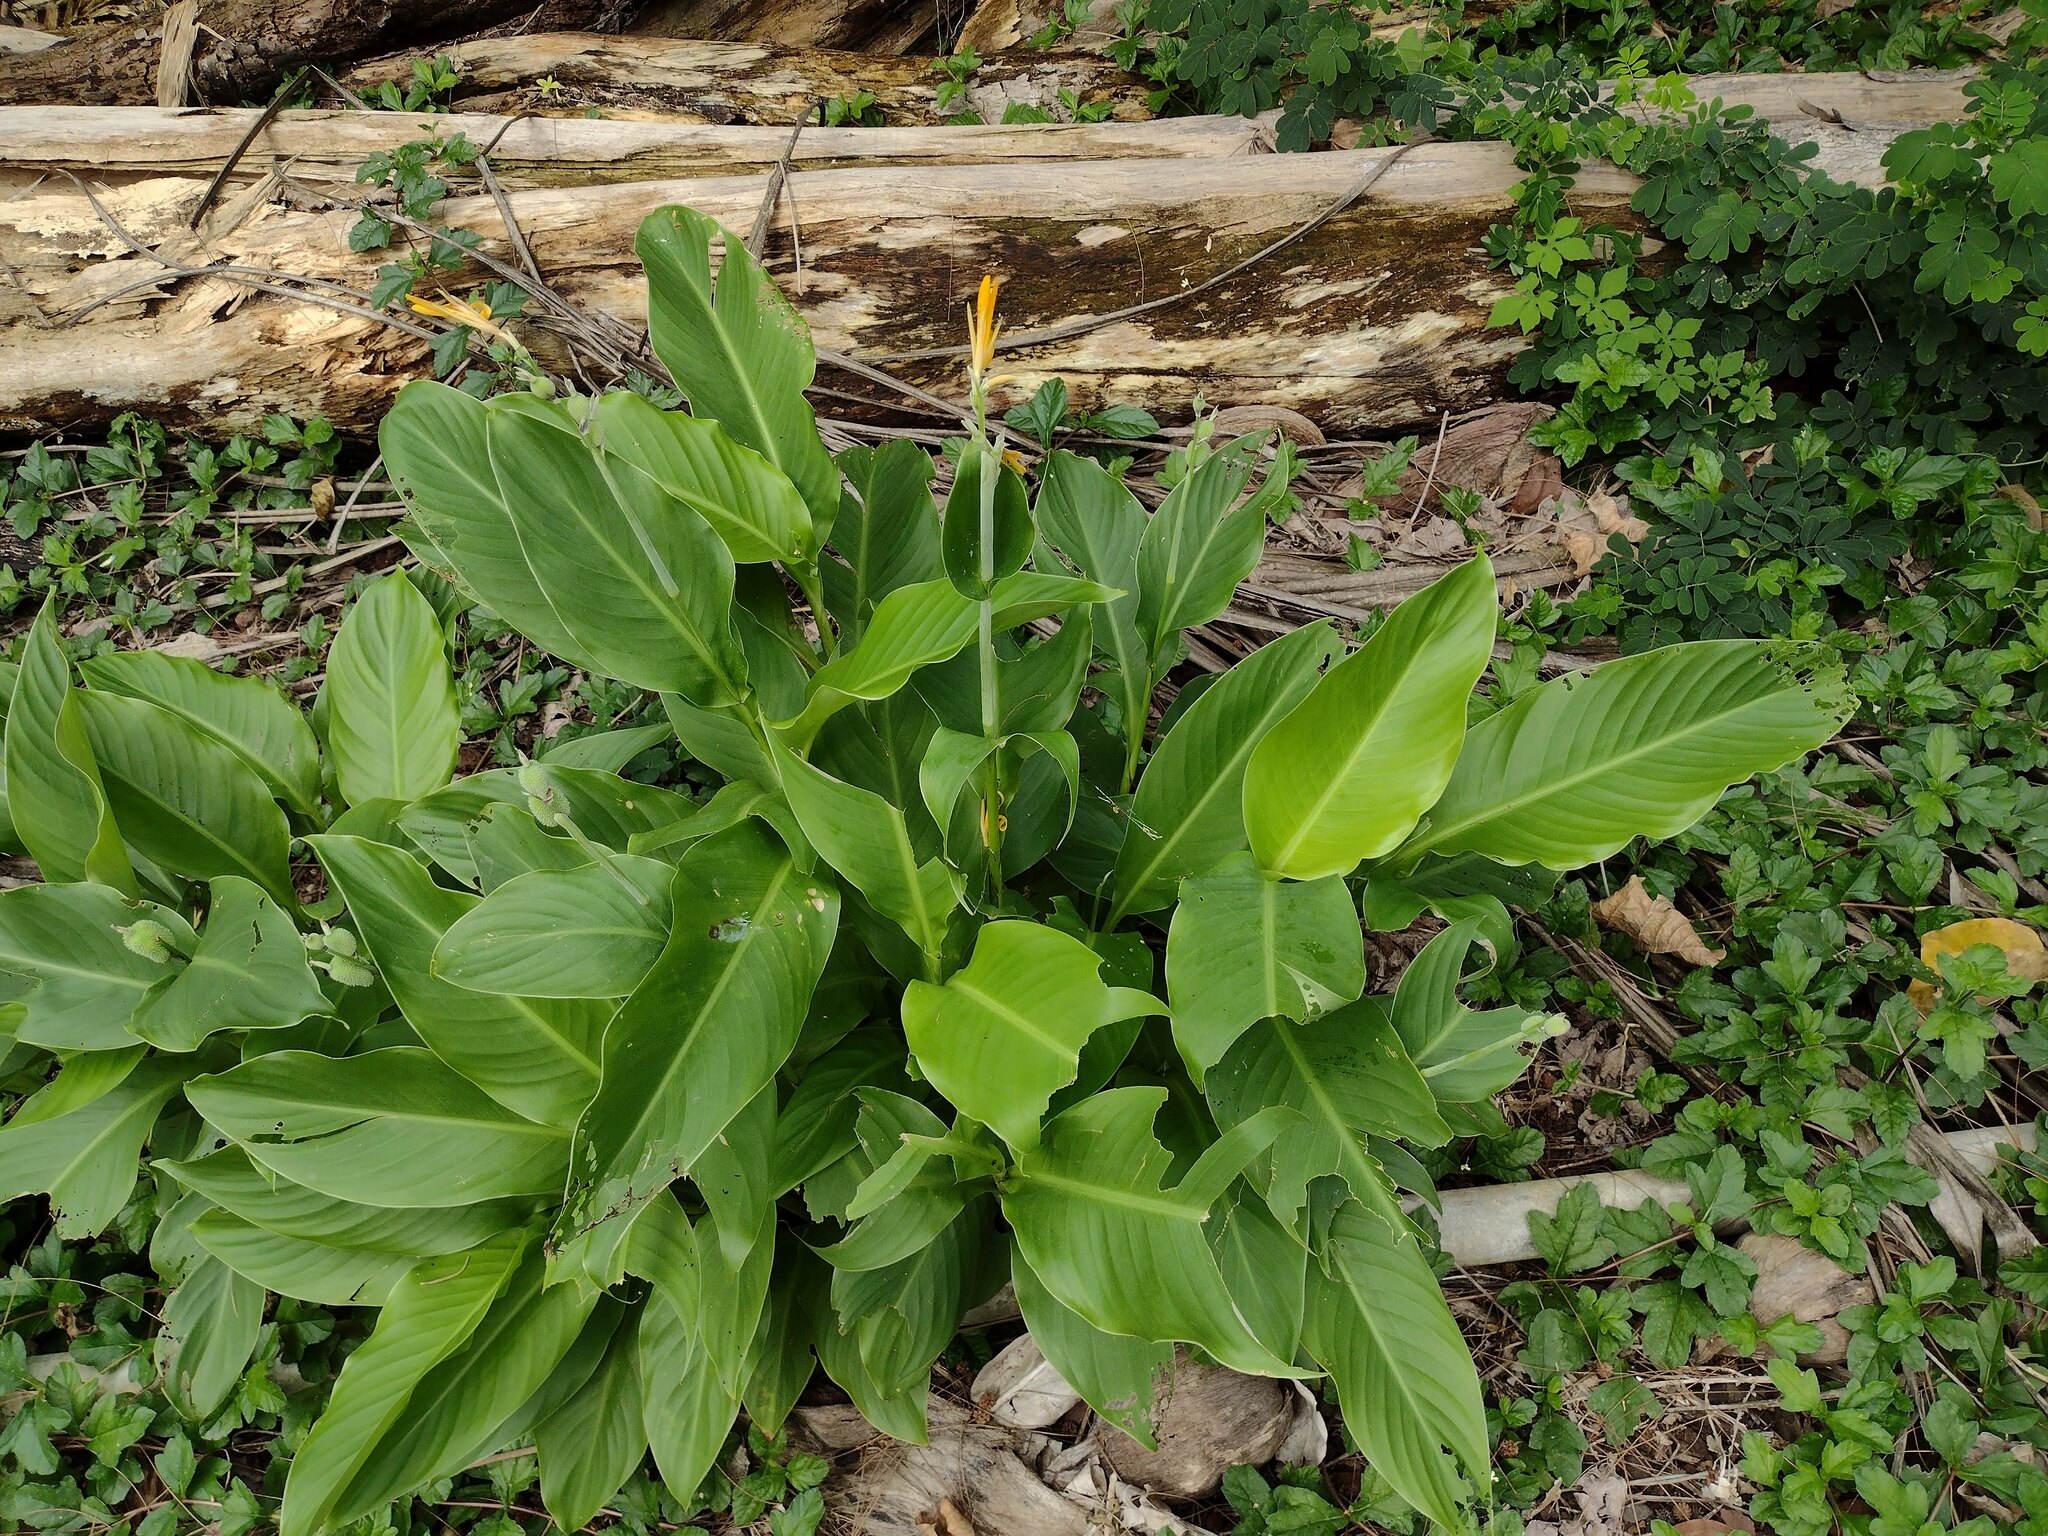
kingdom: Plantae
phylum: Tracheophyta
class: Liliopsida
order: Zingiberales
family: Cannaceae
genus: Canna
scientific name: Canna indica
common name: Indian shot
